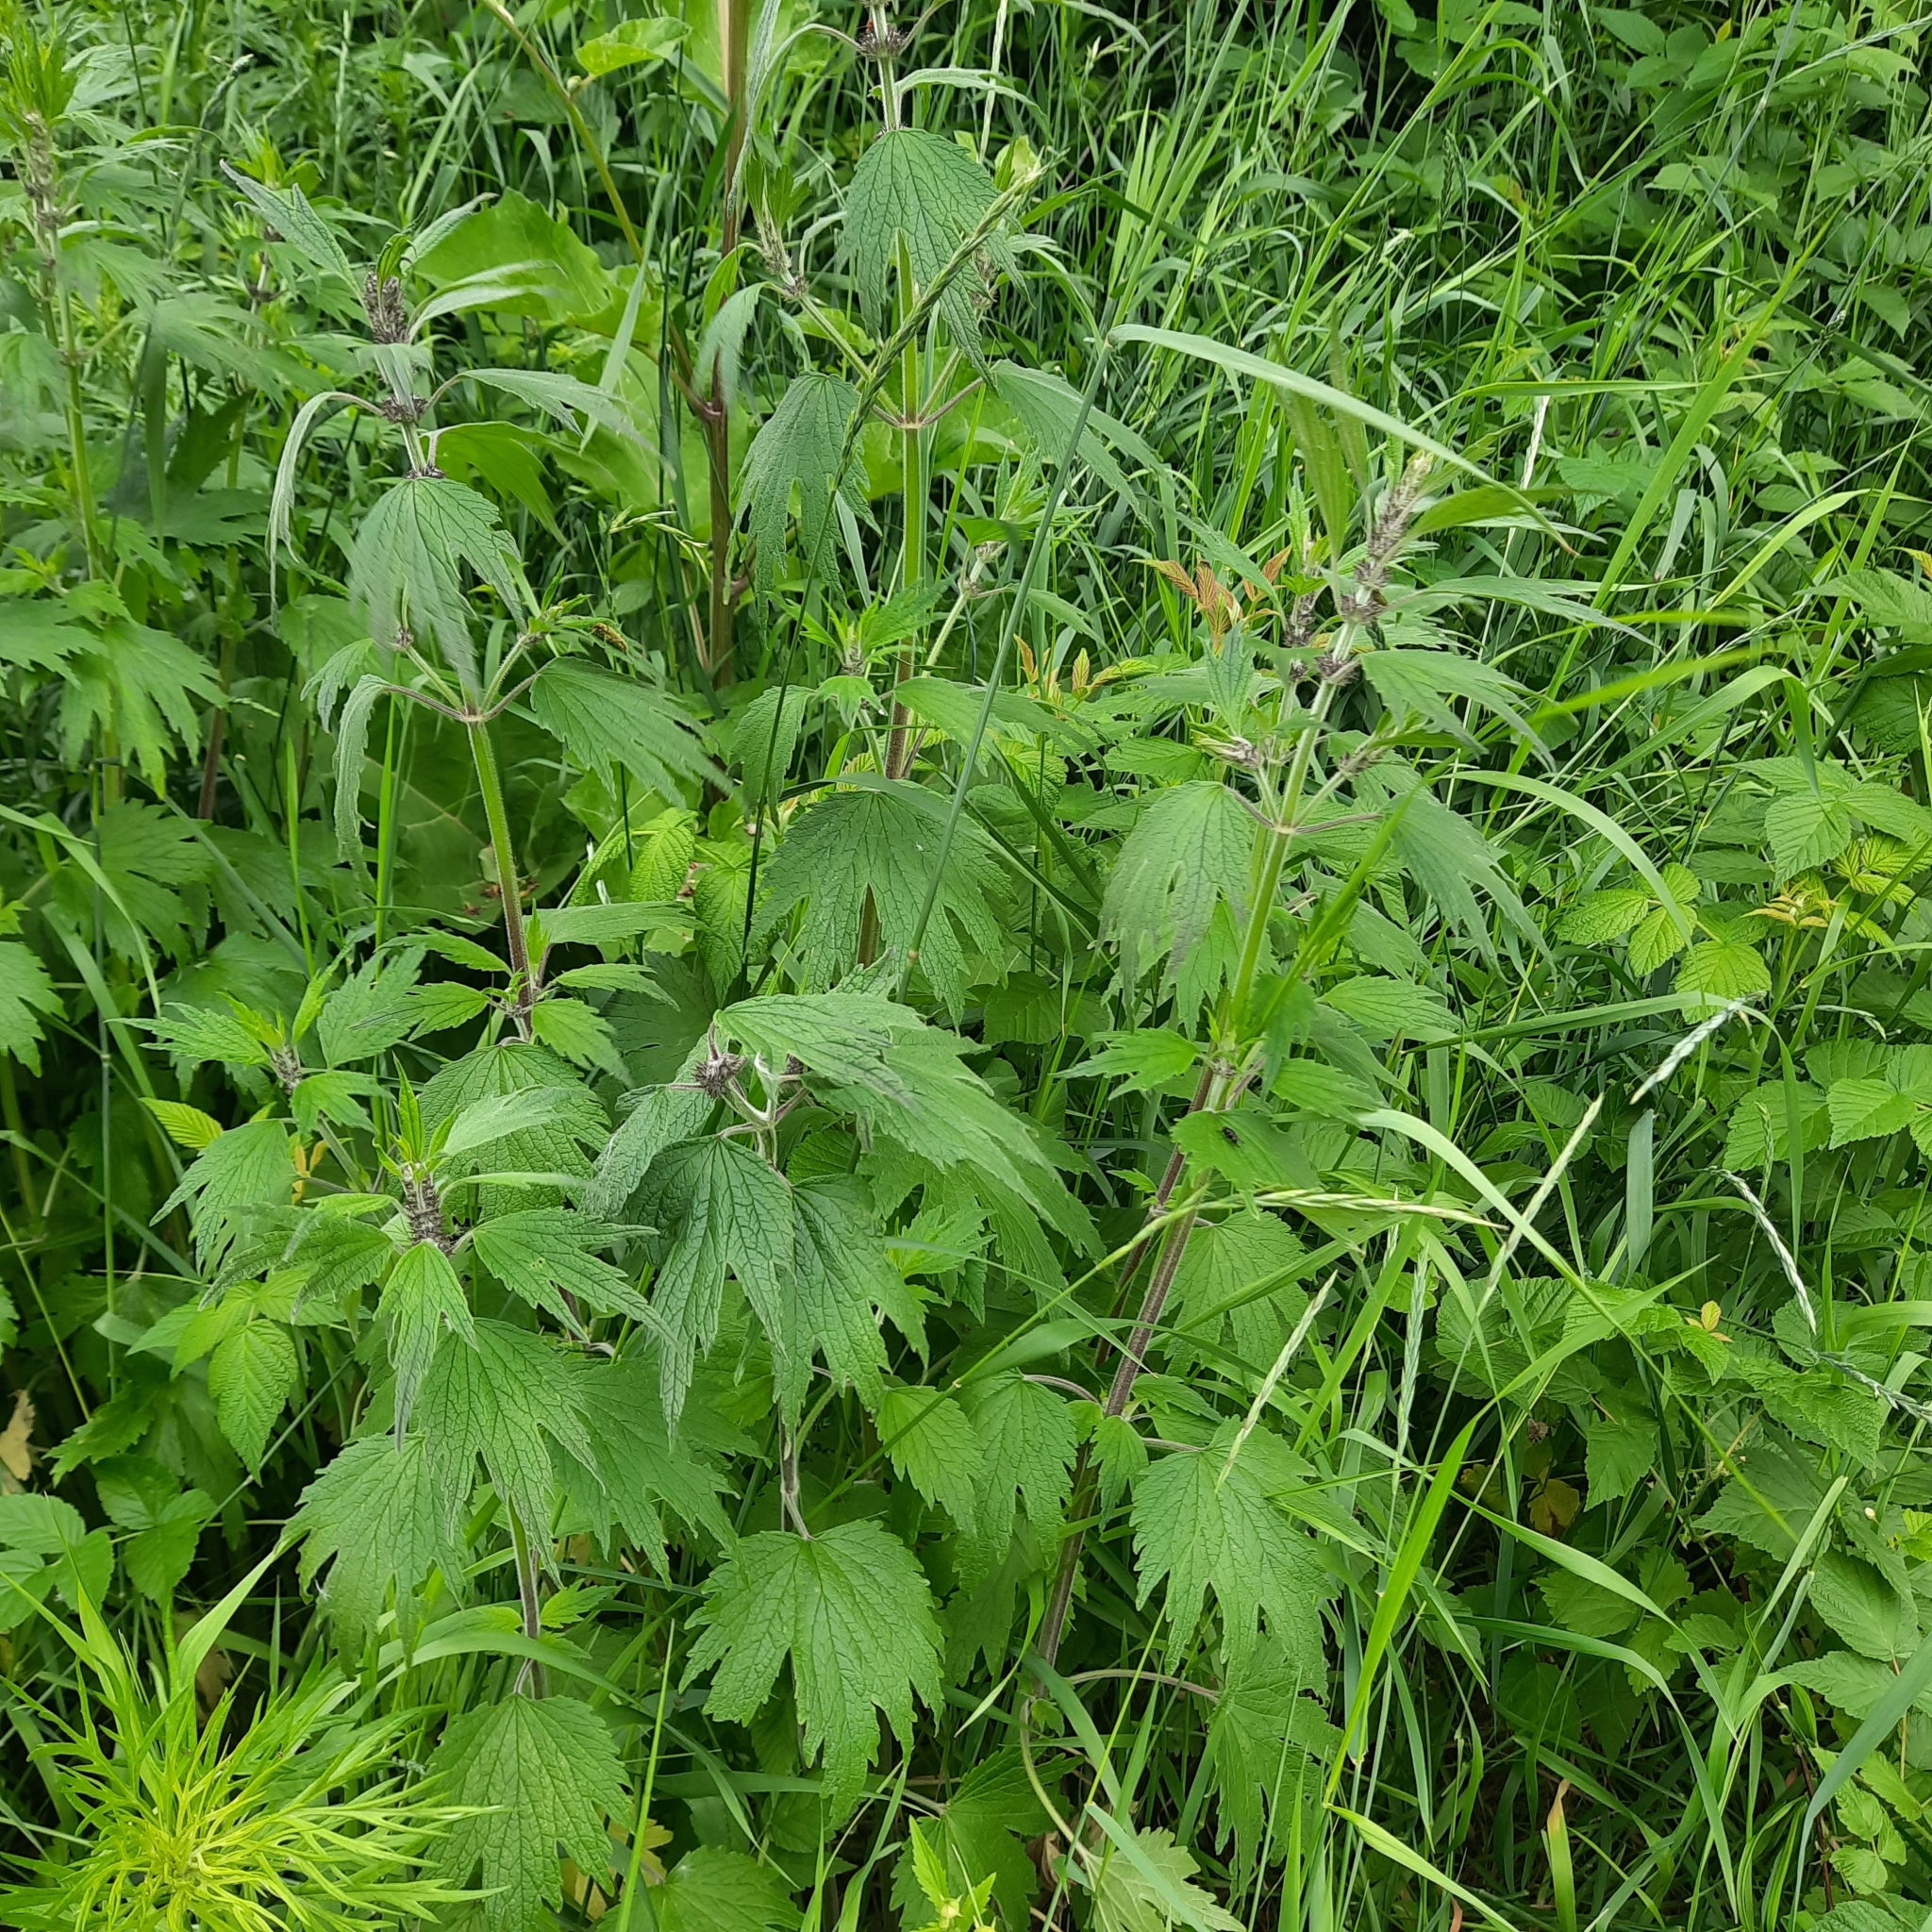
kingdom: Plantae
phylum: Tracheophyta
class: Magnoliopsida
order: Lamiales
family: Lamiaceae
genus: Leonurus
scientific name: Leonurus quinquelobatus
